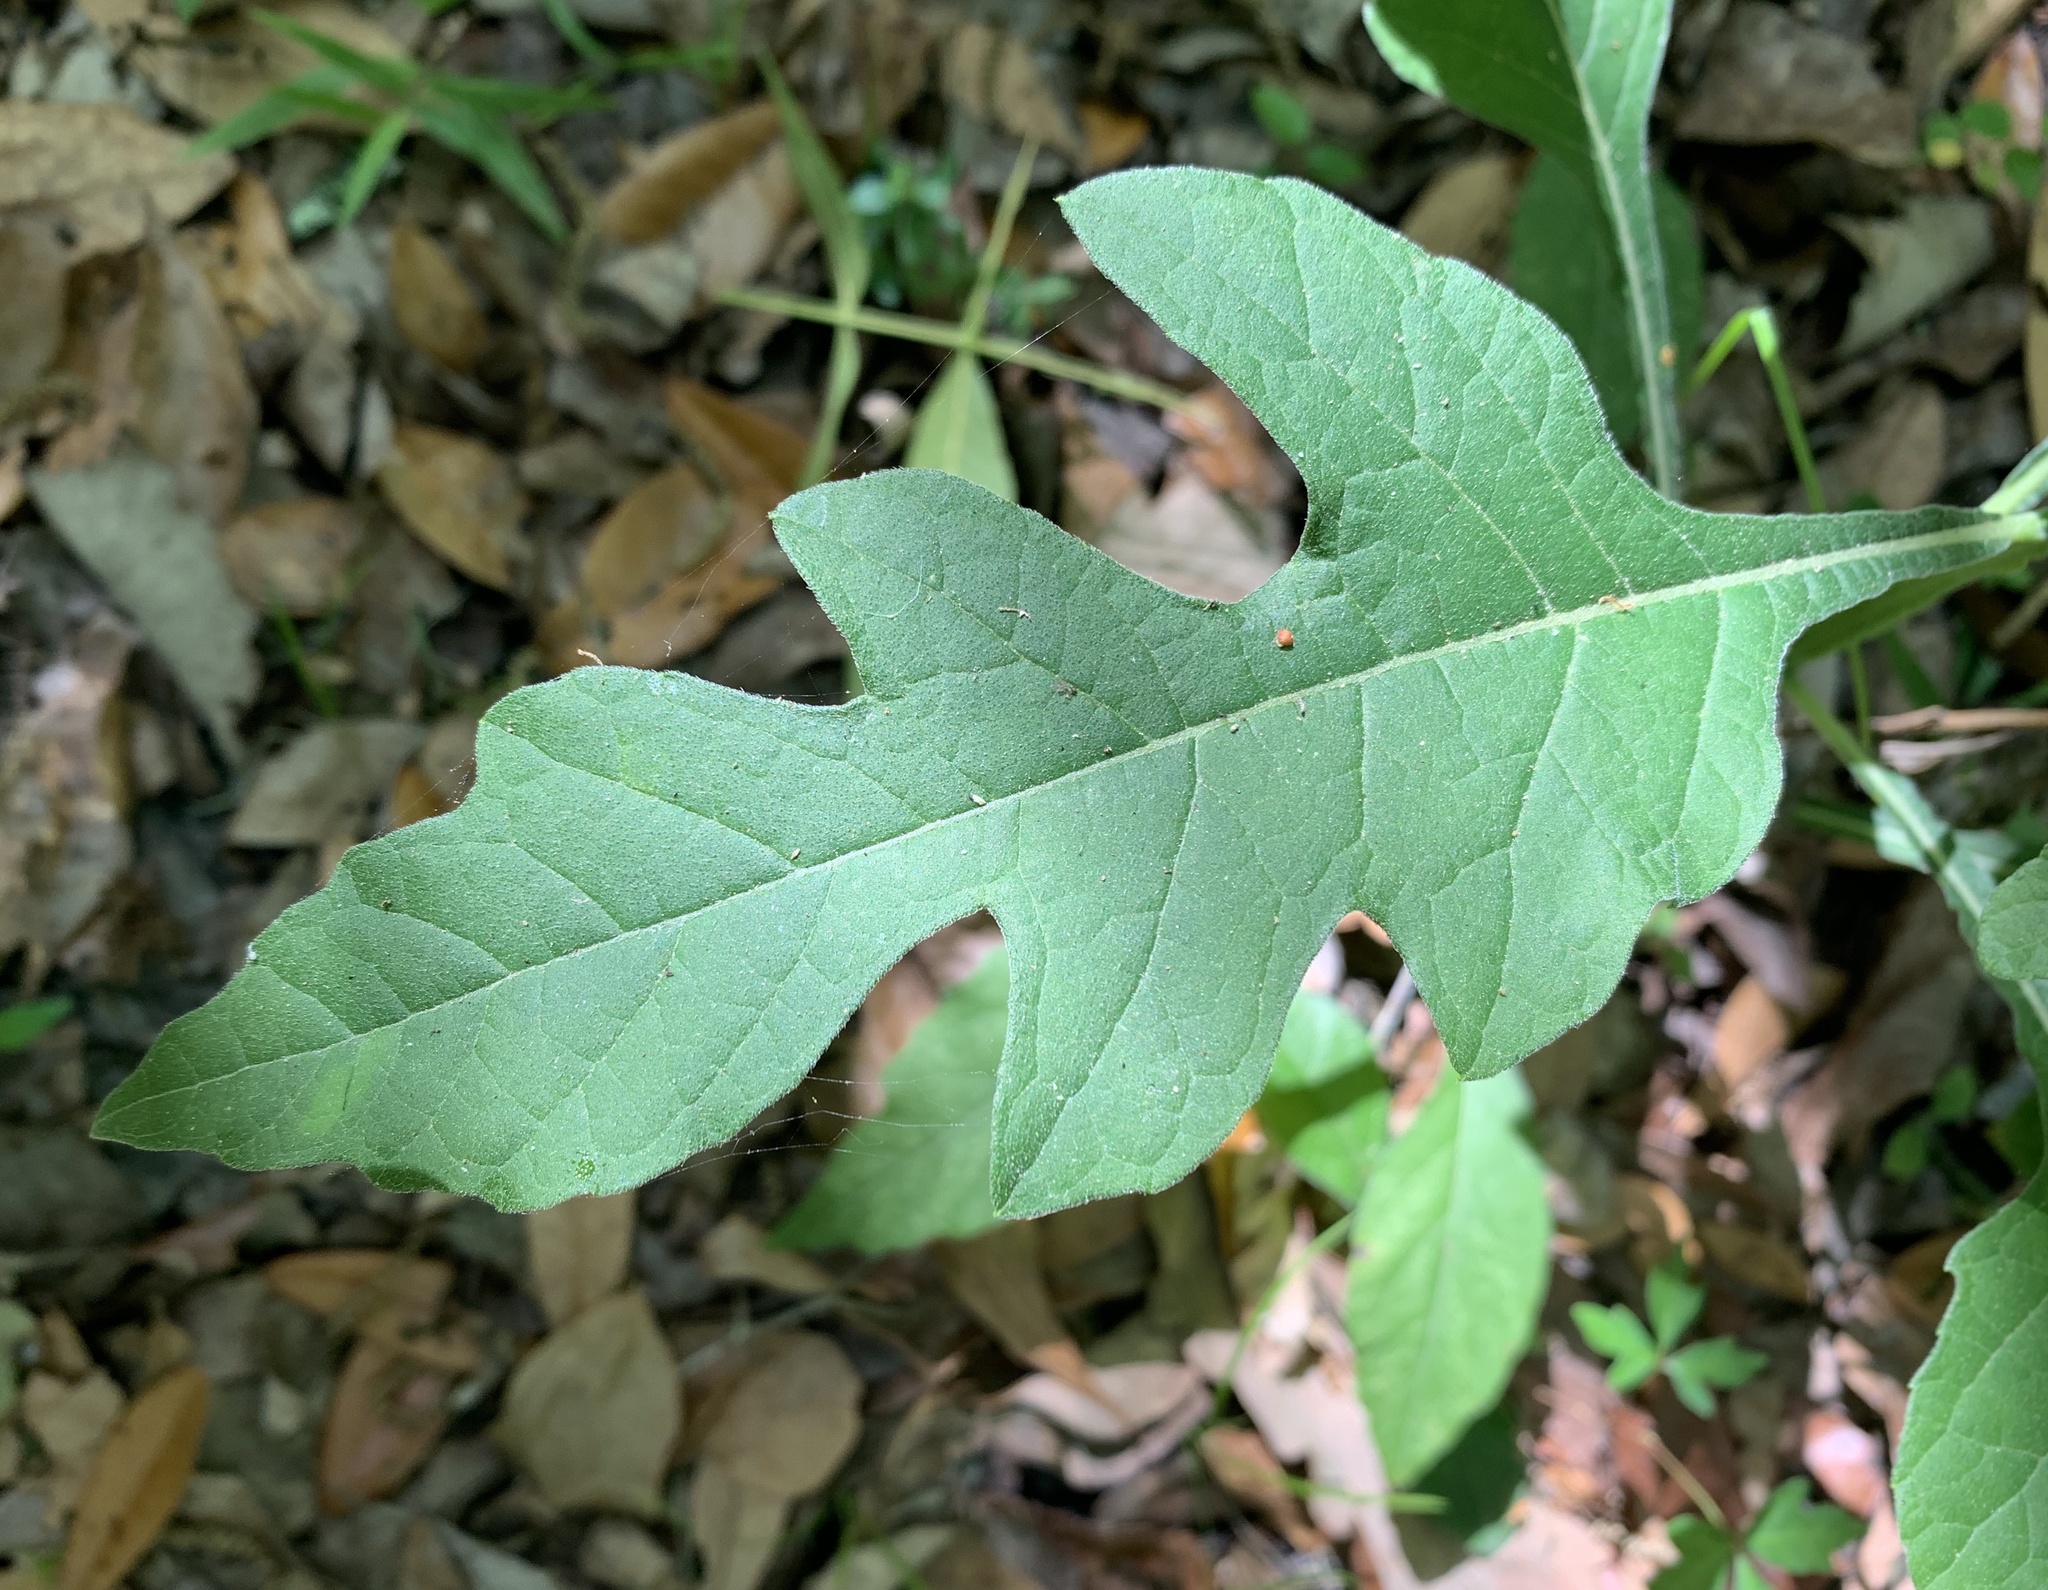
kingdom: Plantae
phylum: Tracheophyta
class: Magnoliopsida
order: Asterales
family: Asteraceae
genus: Verbesina
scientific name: Verbesina virginica
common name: Frostweed
